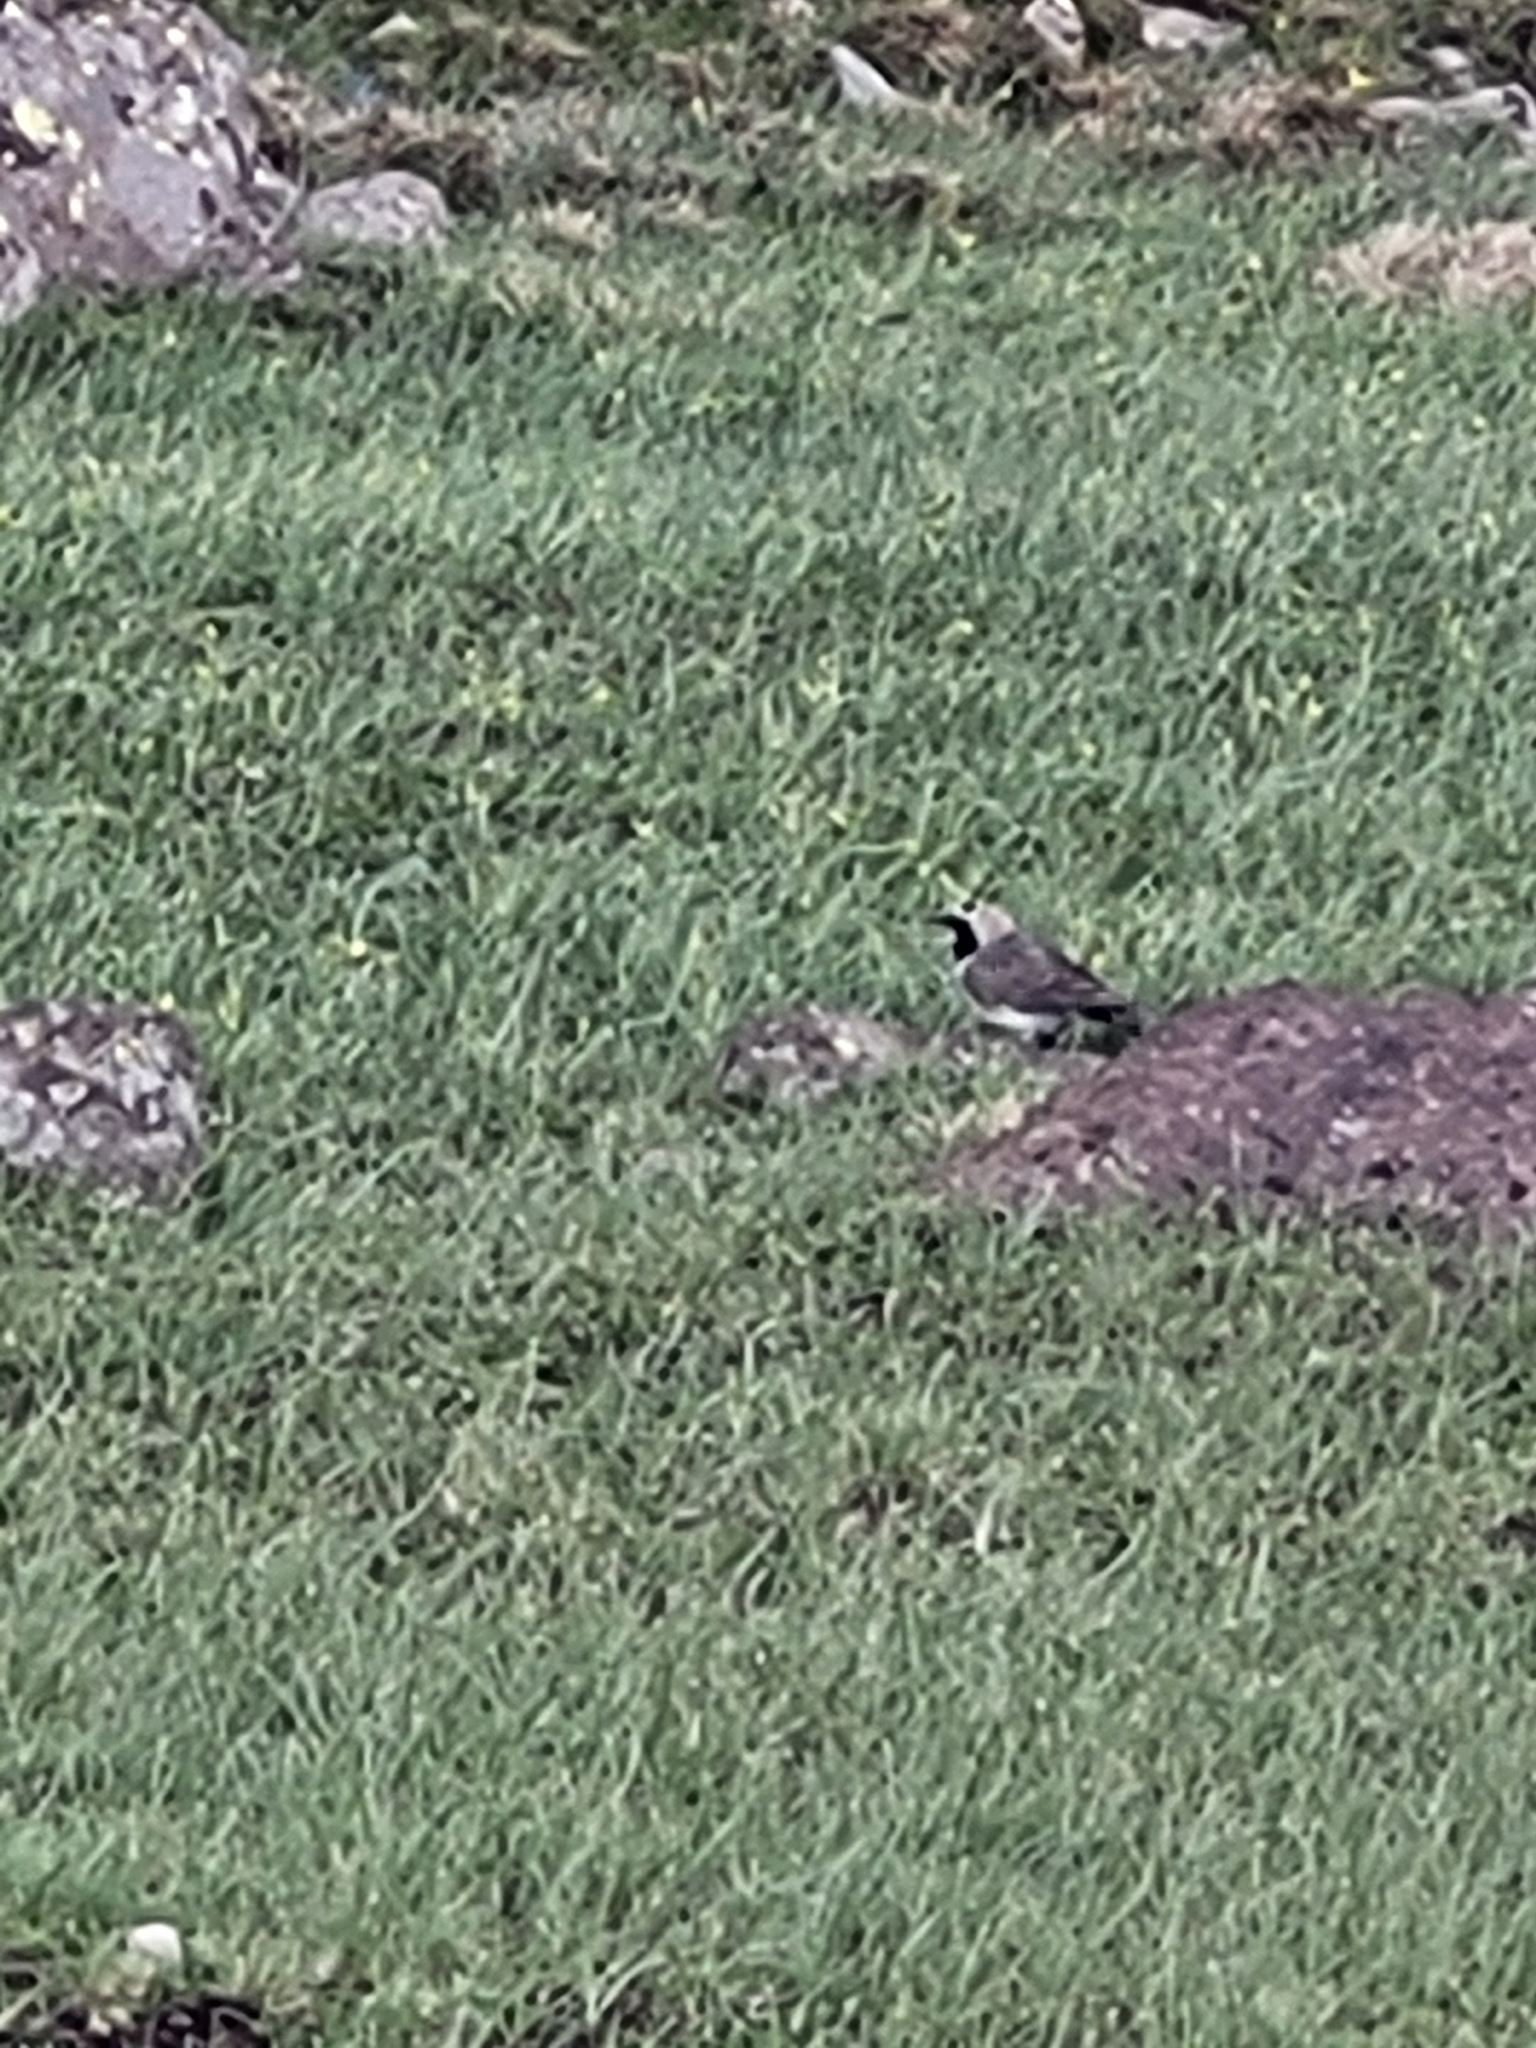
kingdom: Animalia
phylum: Chordata
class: Aves
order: Passeriformes
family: Alaudidae
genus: Eremophila
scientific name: Eremophila alpestris
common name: Horned lark
